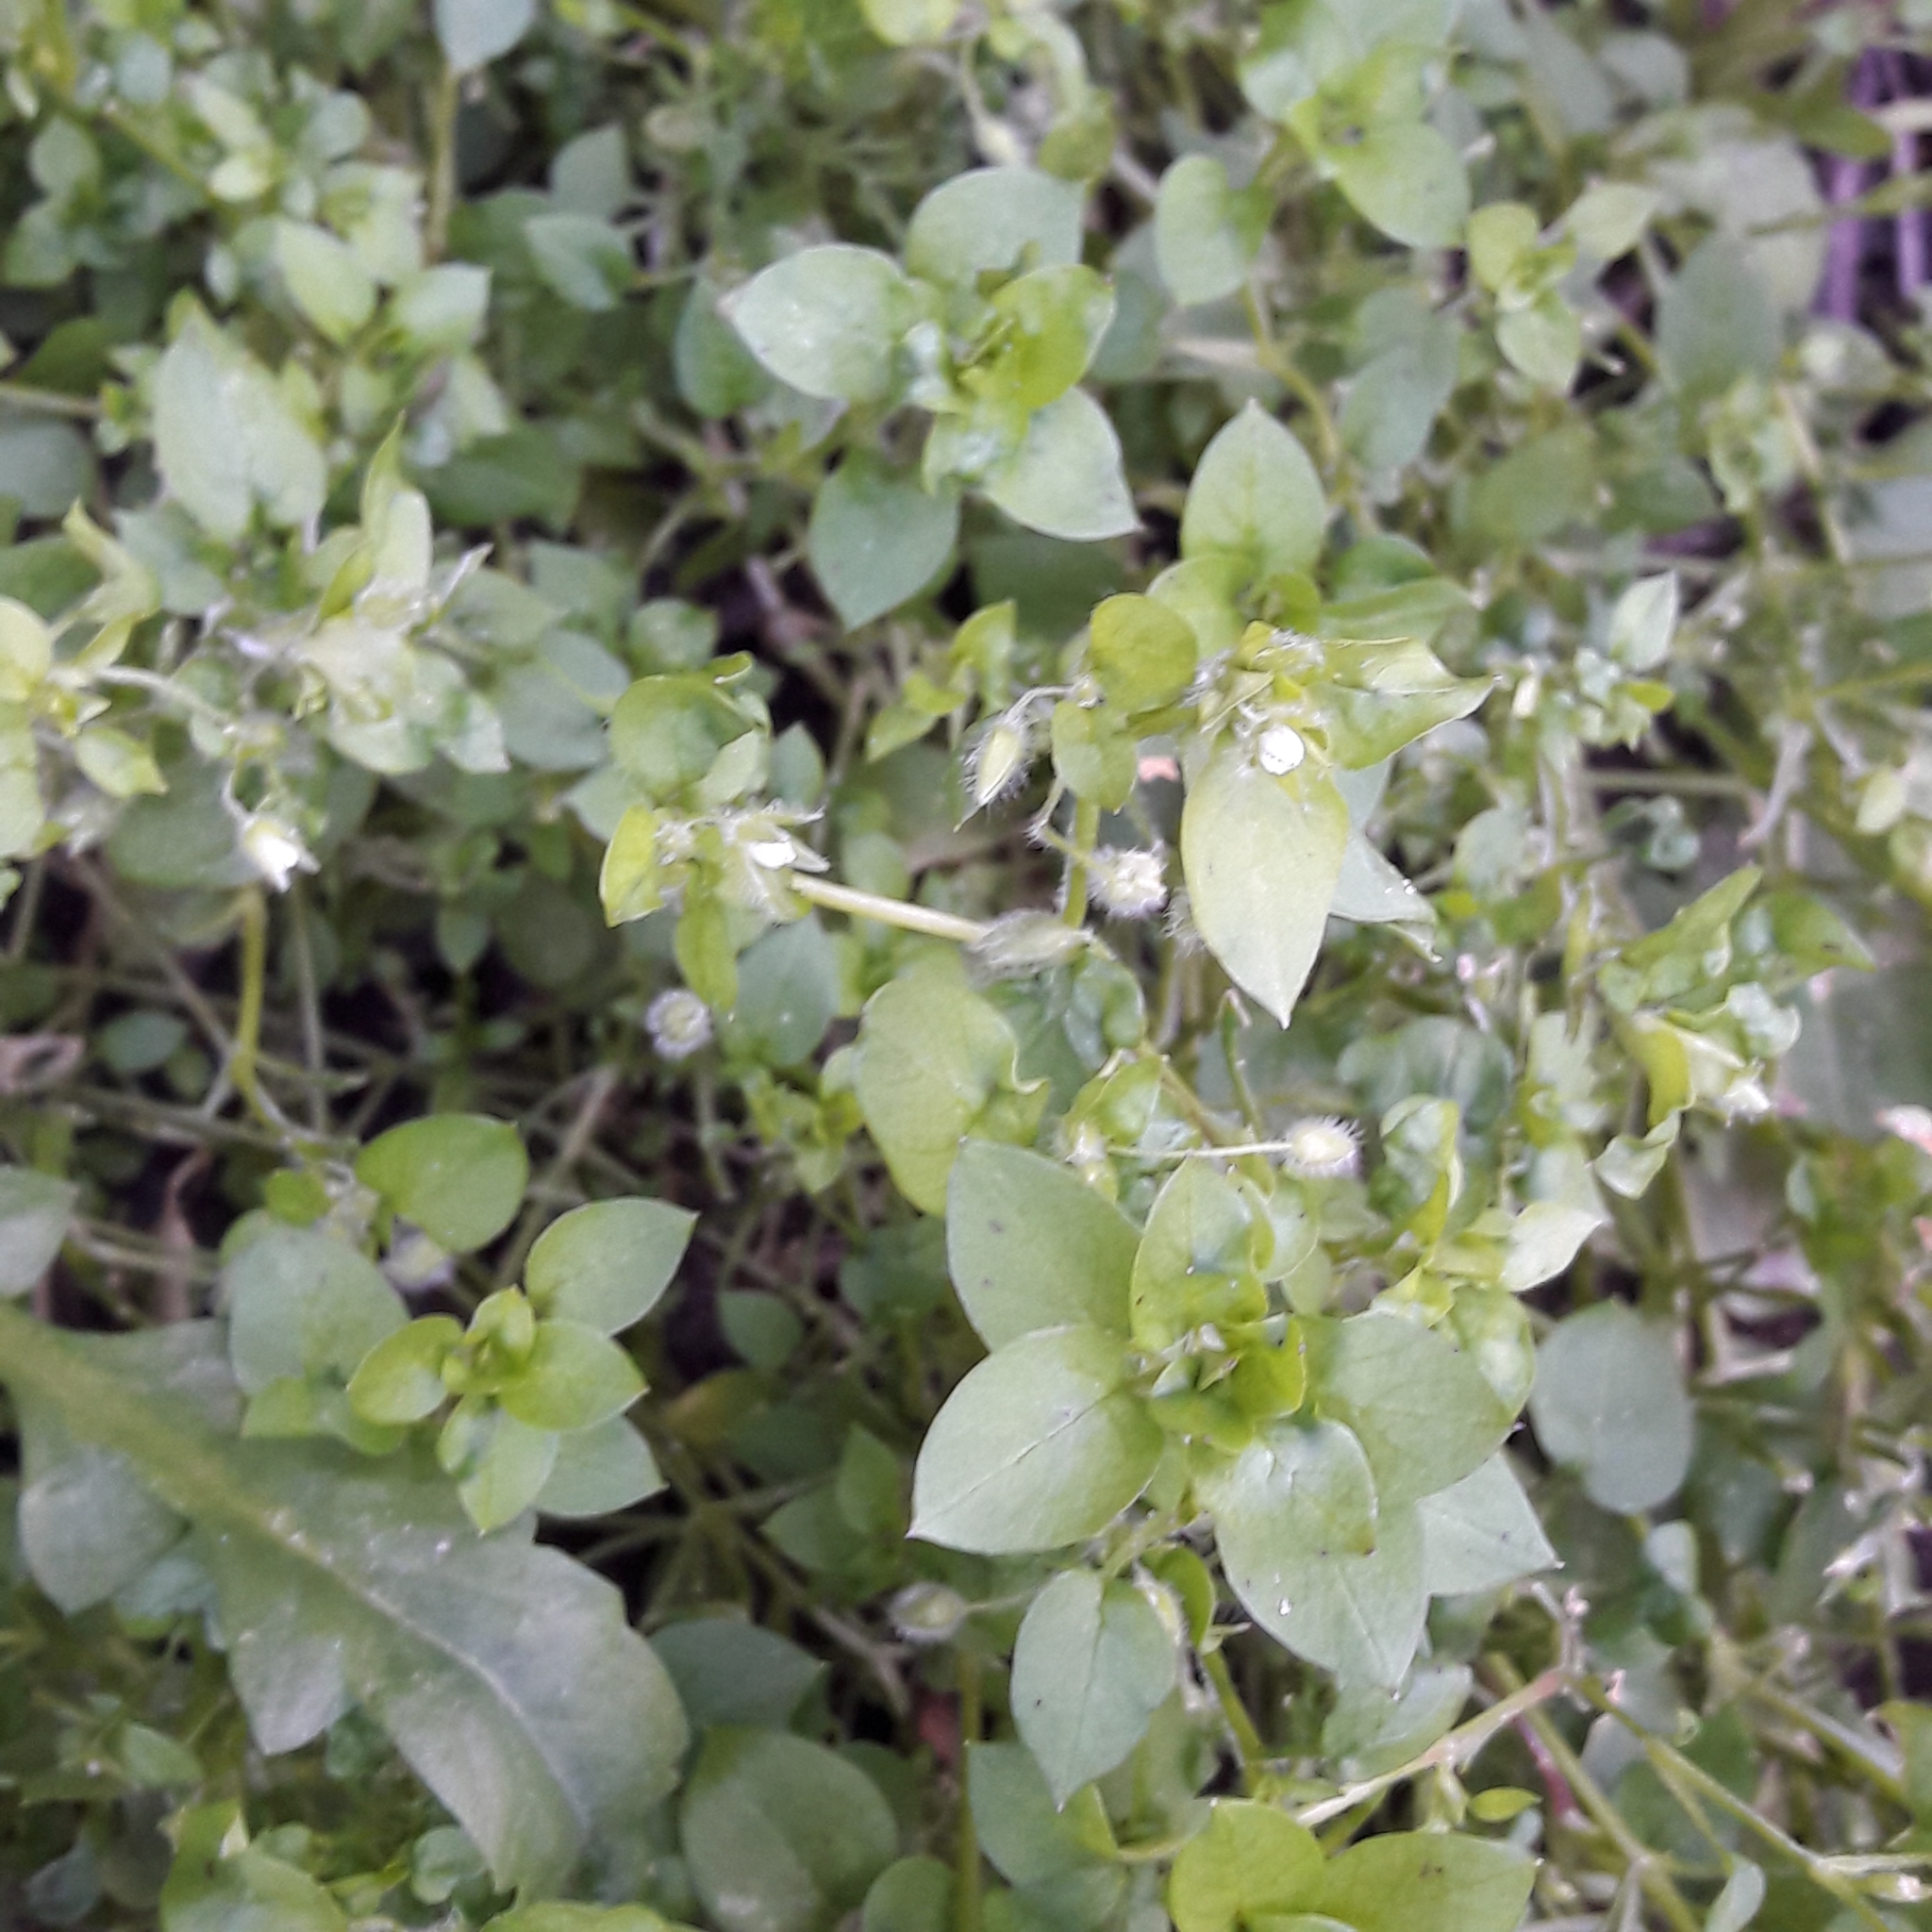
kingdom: Plantae
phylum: Tracheophyta
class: Magnoliopsida
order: Caryophyllales
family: Caryophyllaceae
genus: Stellaria
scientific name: Stellaria media
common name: Common chickweed
